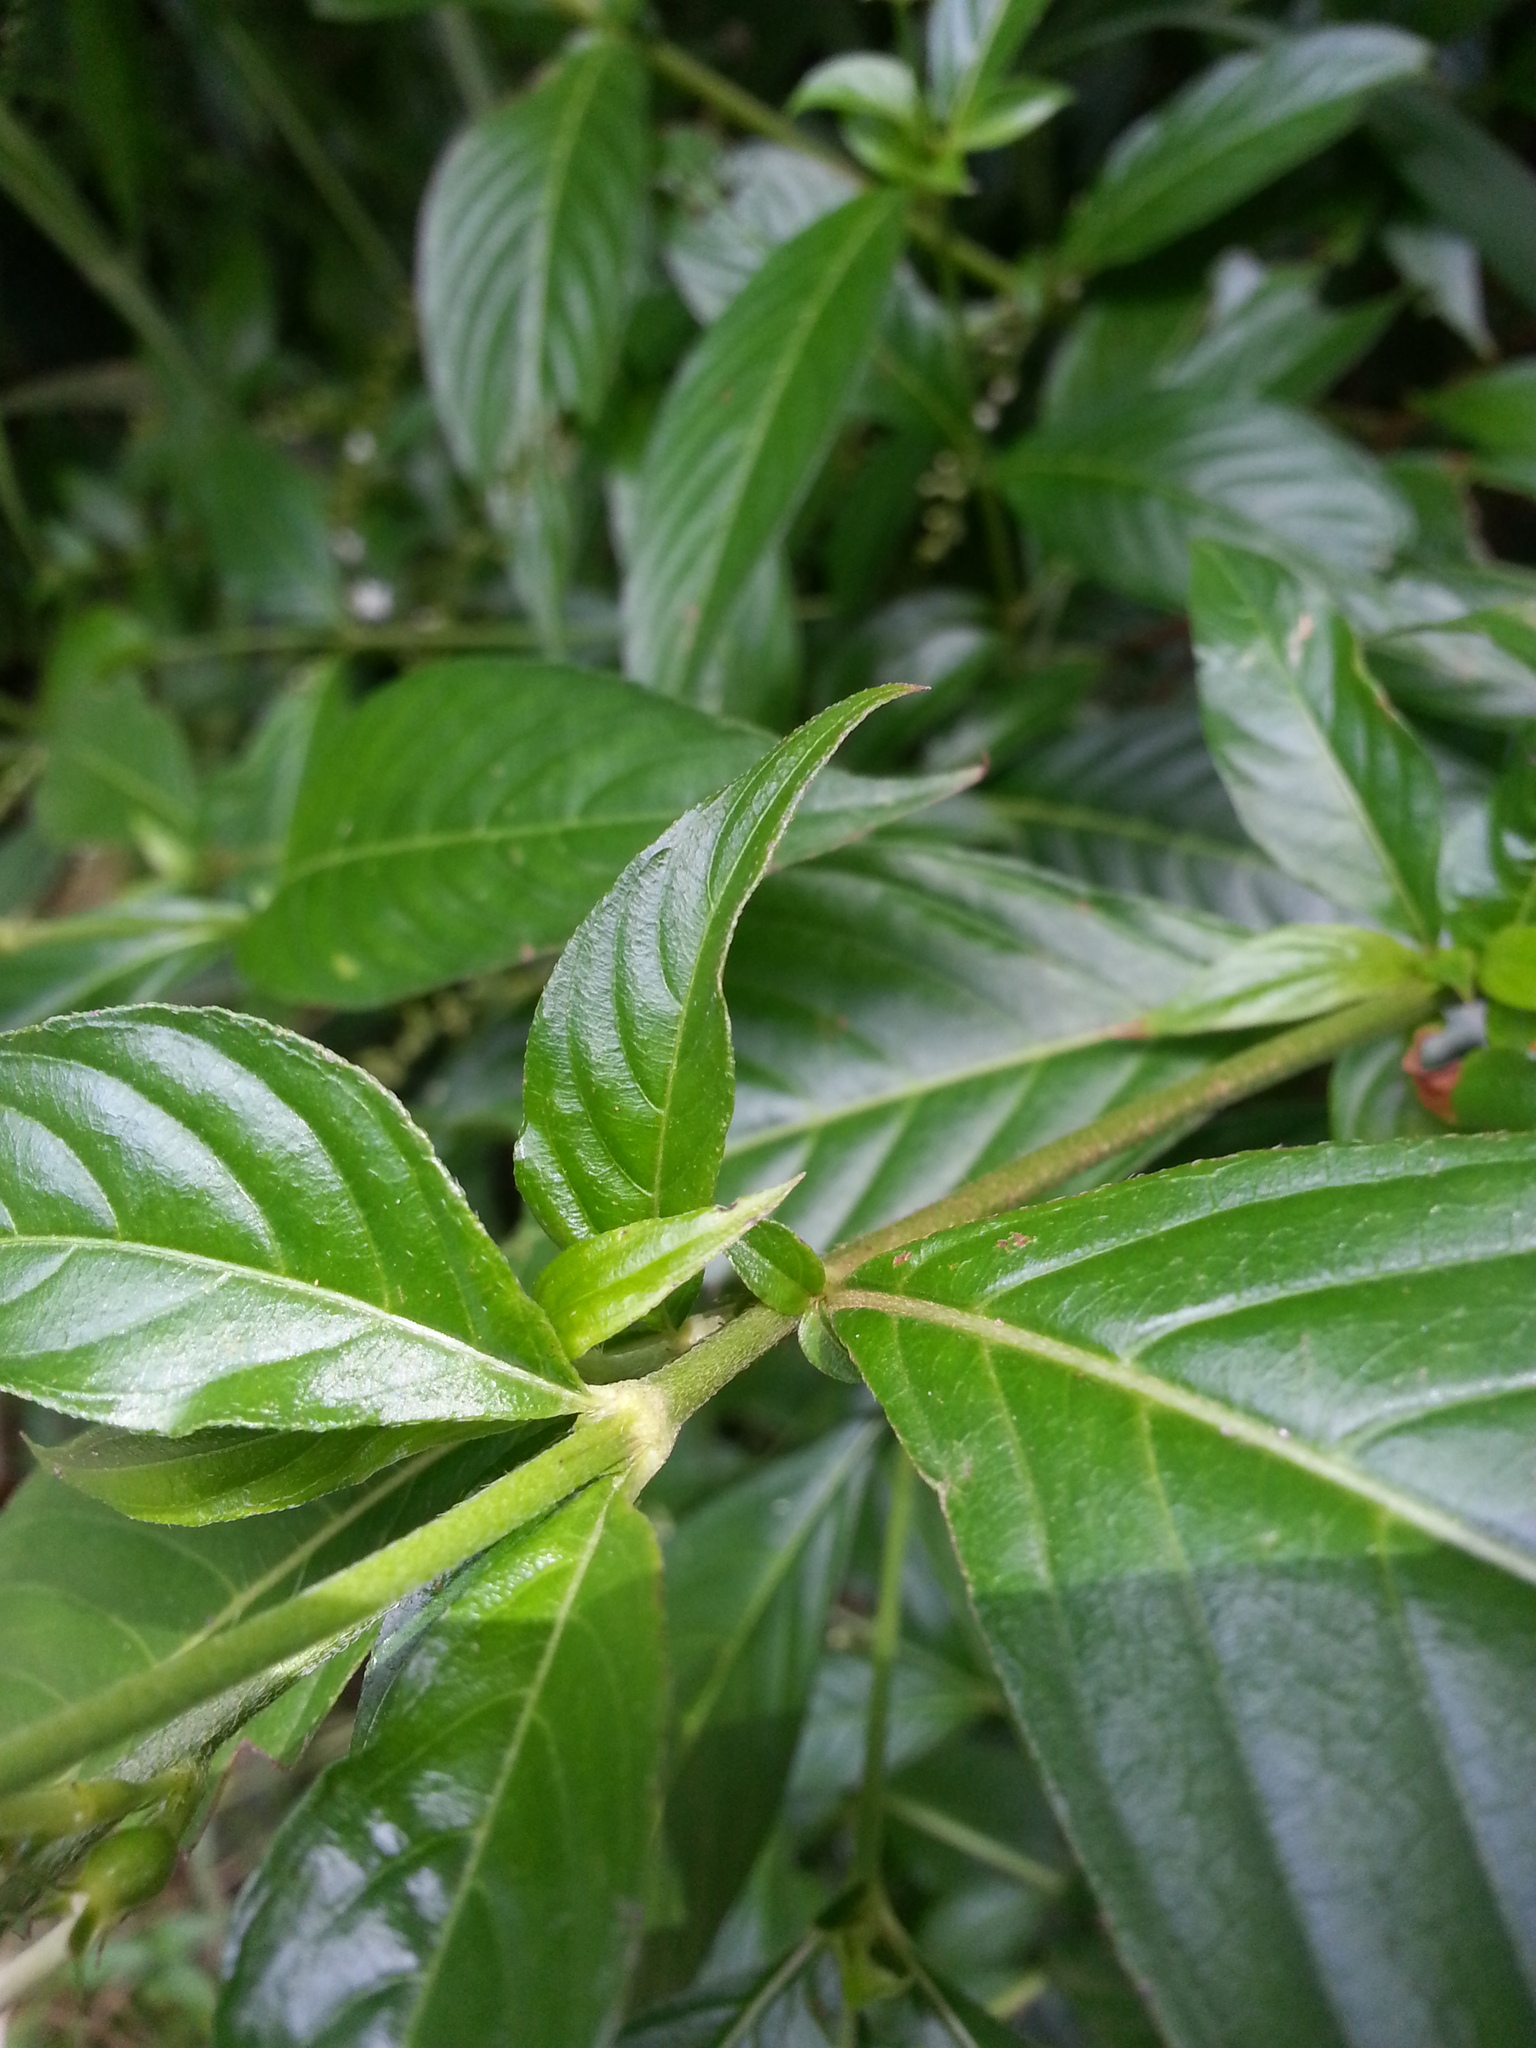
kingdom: Plantae
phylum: Tracheophyta
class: Magnoliopsida
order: Gentianales
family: Rubiaceae
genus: Gonzalagunia
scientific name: Gonzalagunia hirsuta
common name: Mata de mariposa
